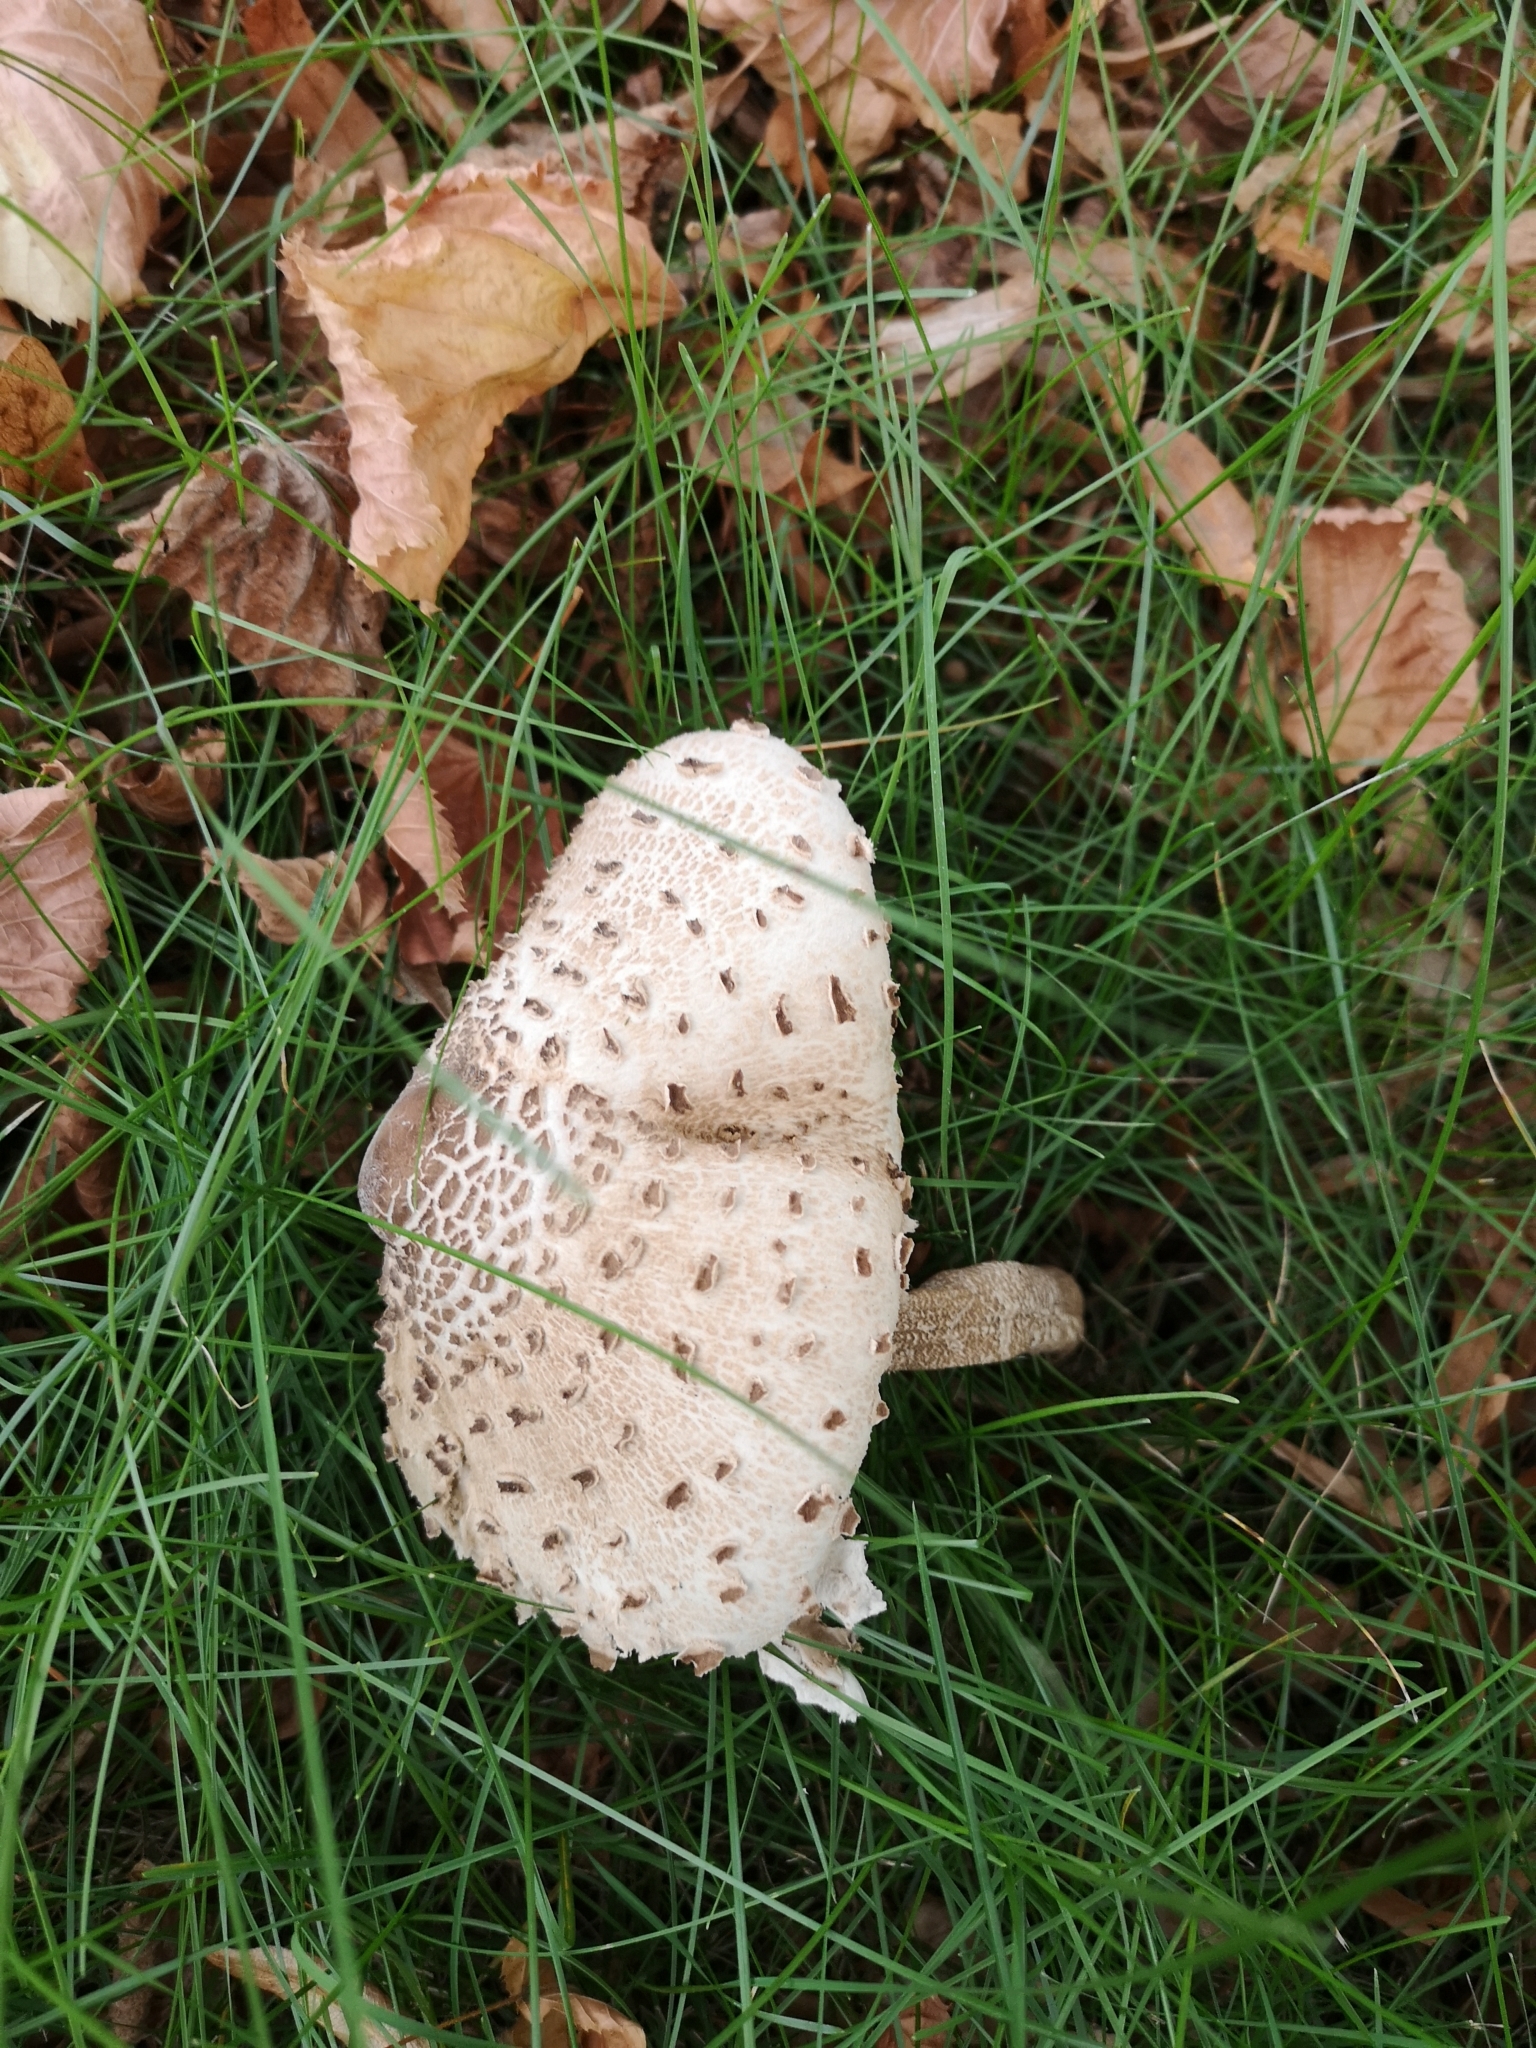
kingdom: Fungi
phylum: Basidiomycota
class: Agaricomycetes
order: Agaricales
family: Agaricaceae
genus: Macrolepiota
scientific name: Macrolepiota procera
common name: Parasol
